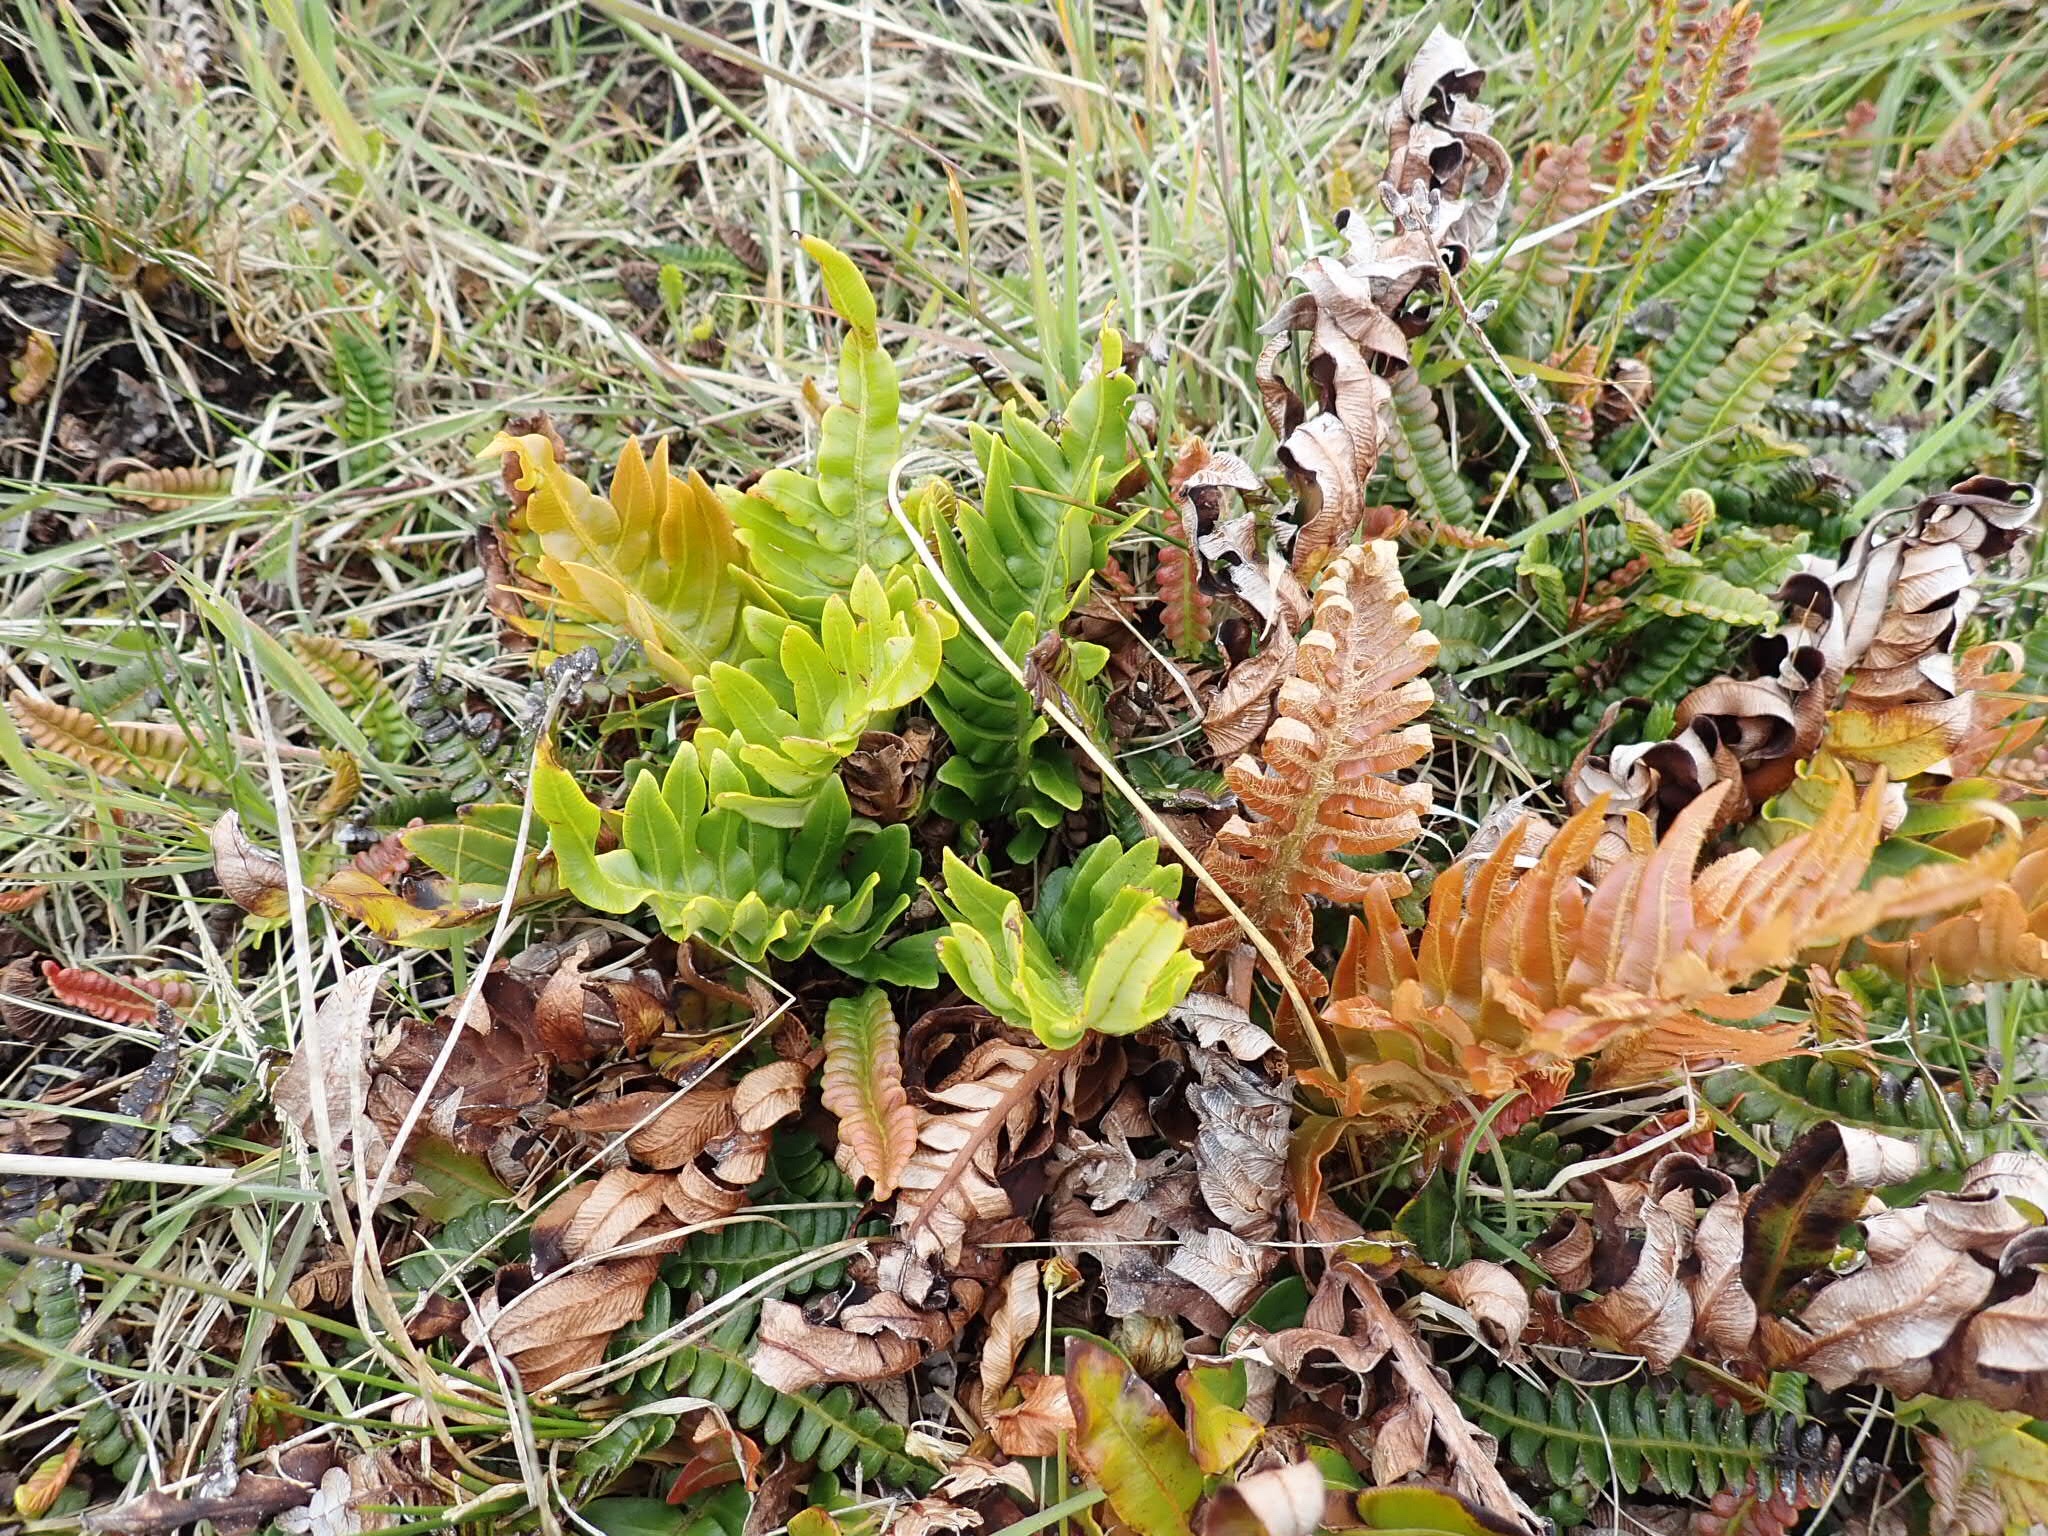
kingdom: Plantae
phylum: Tracheophyta
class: Polypodiopsida
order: Polypodiales
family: Blechnaceae
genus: Lomariocycas
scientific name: Lomariocycas magellanica
